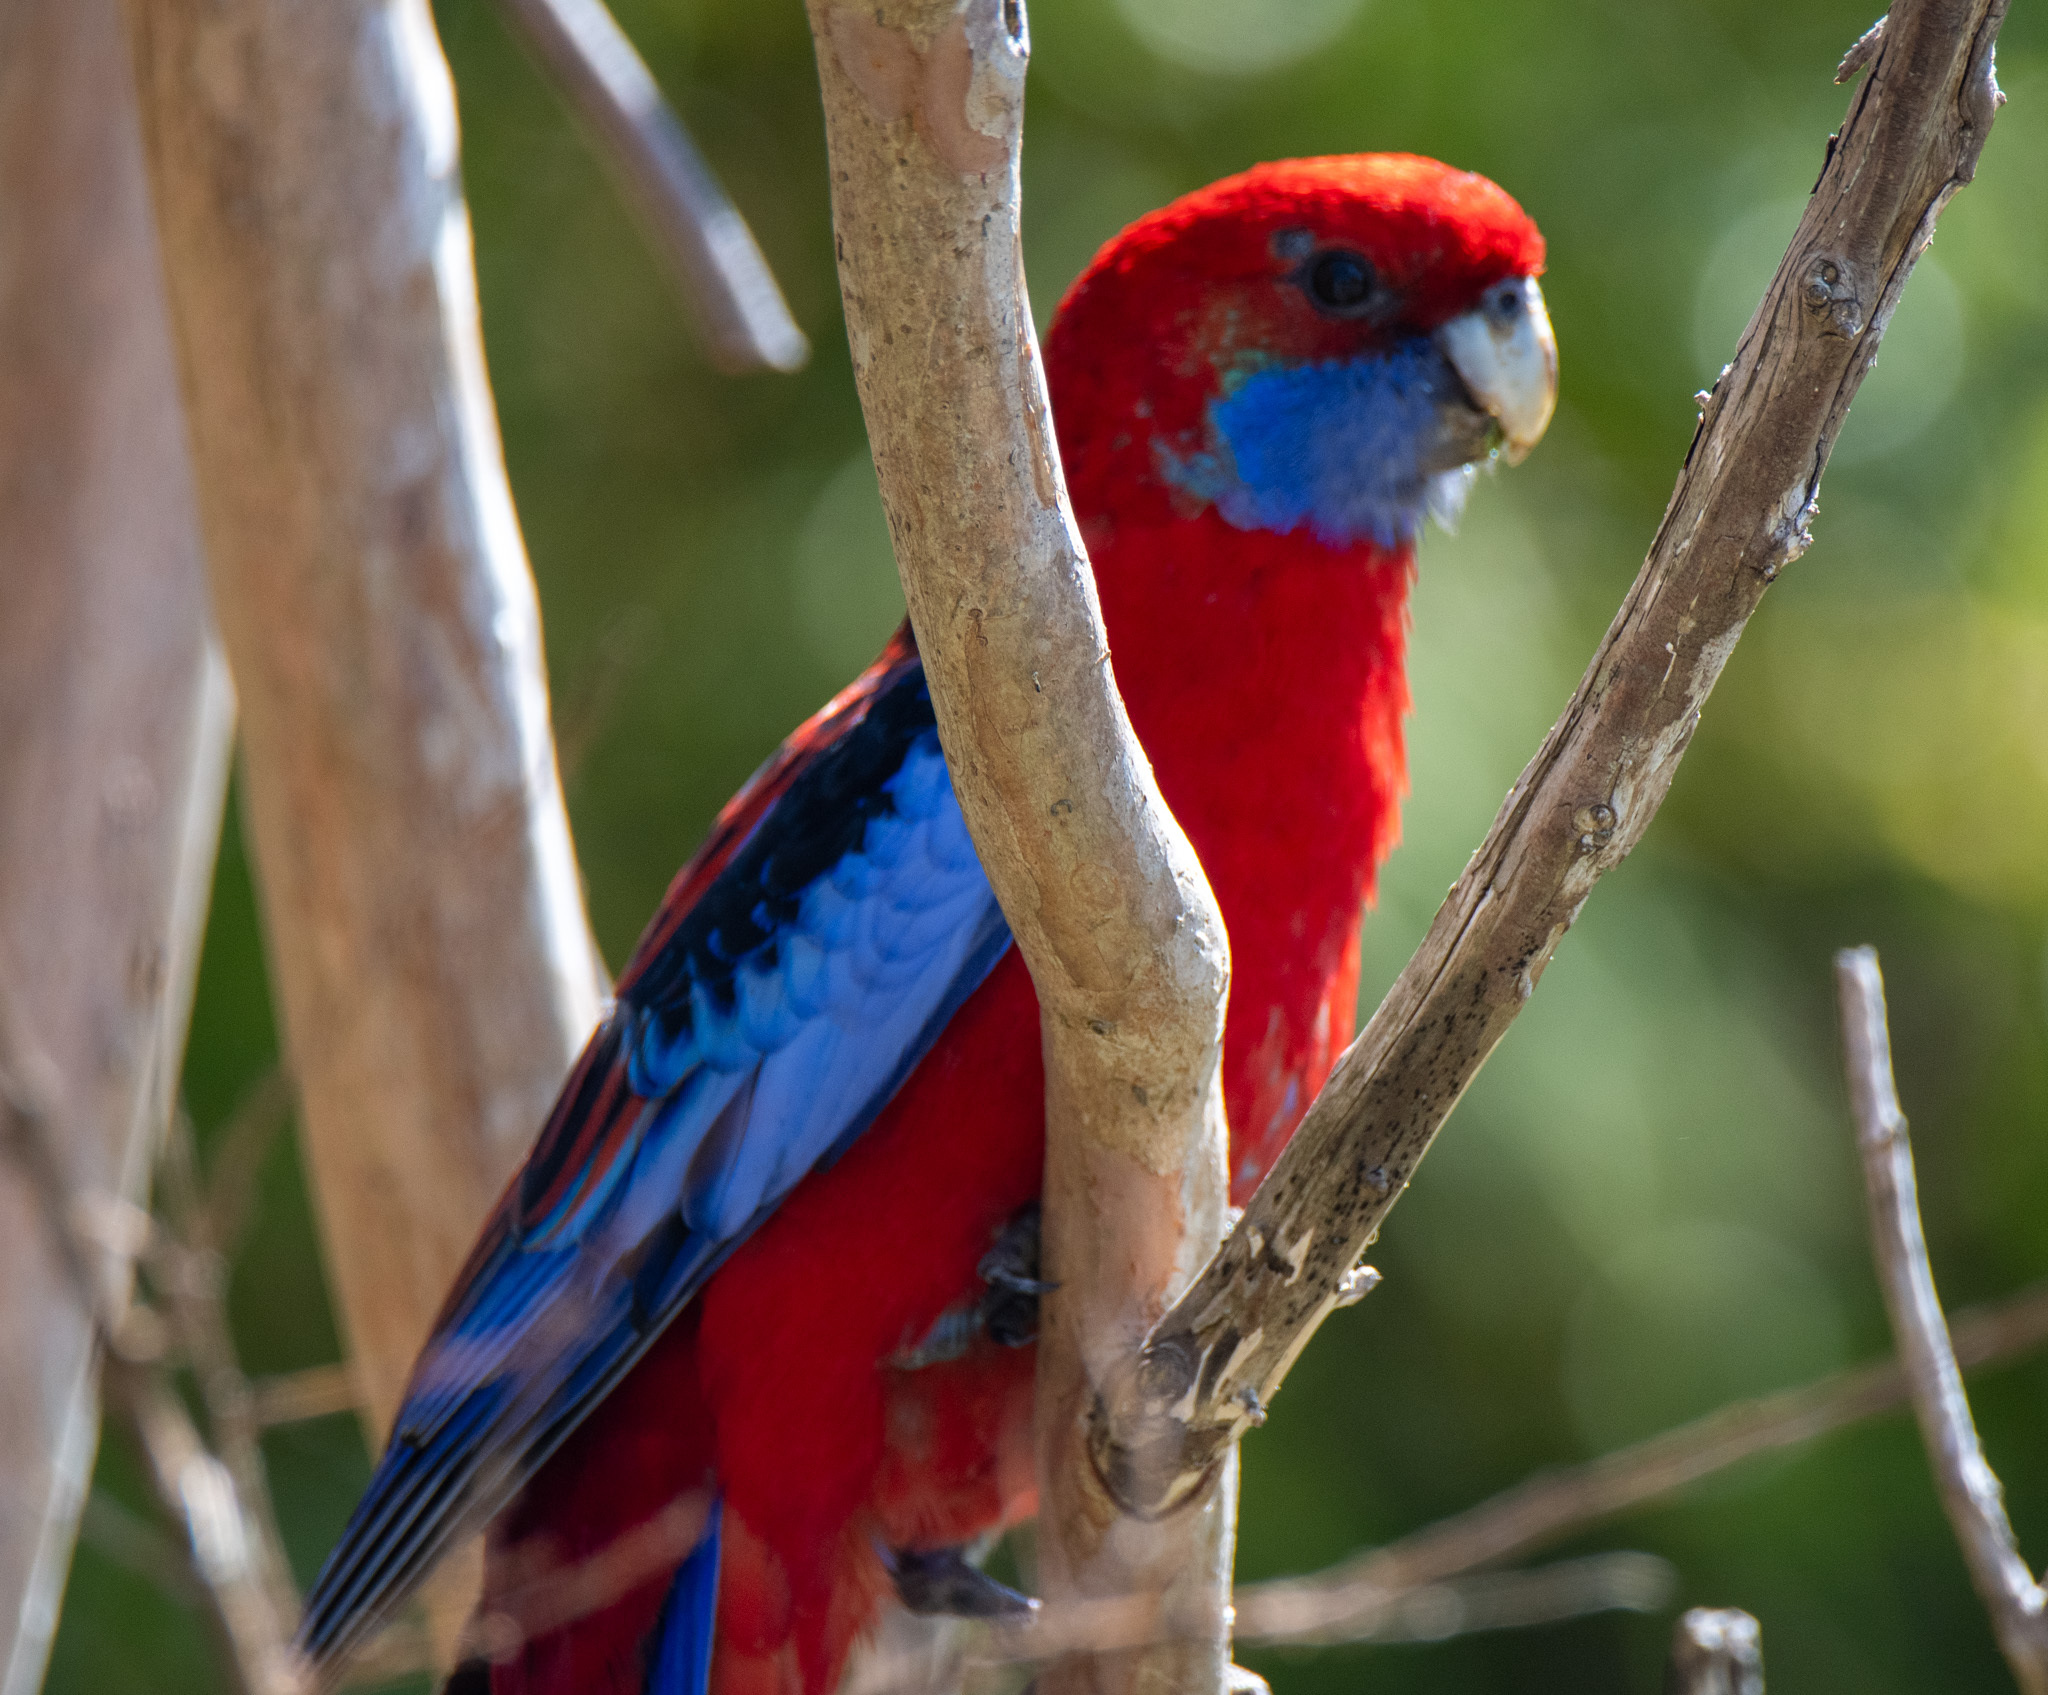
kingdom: Animalia
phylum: Chordata
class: Aves
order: Psittaciformes
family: Psittacidae
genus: Platycercus
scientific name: Platycercus elegans
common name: Crimson rosella
